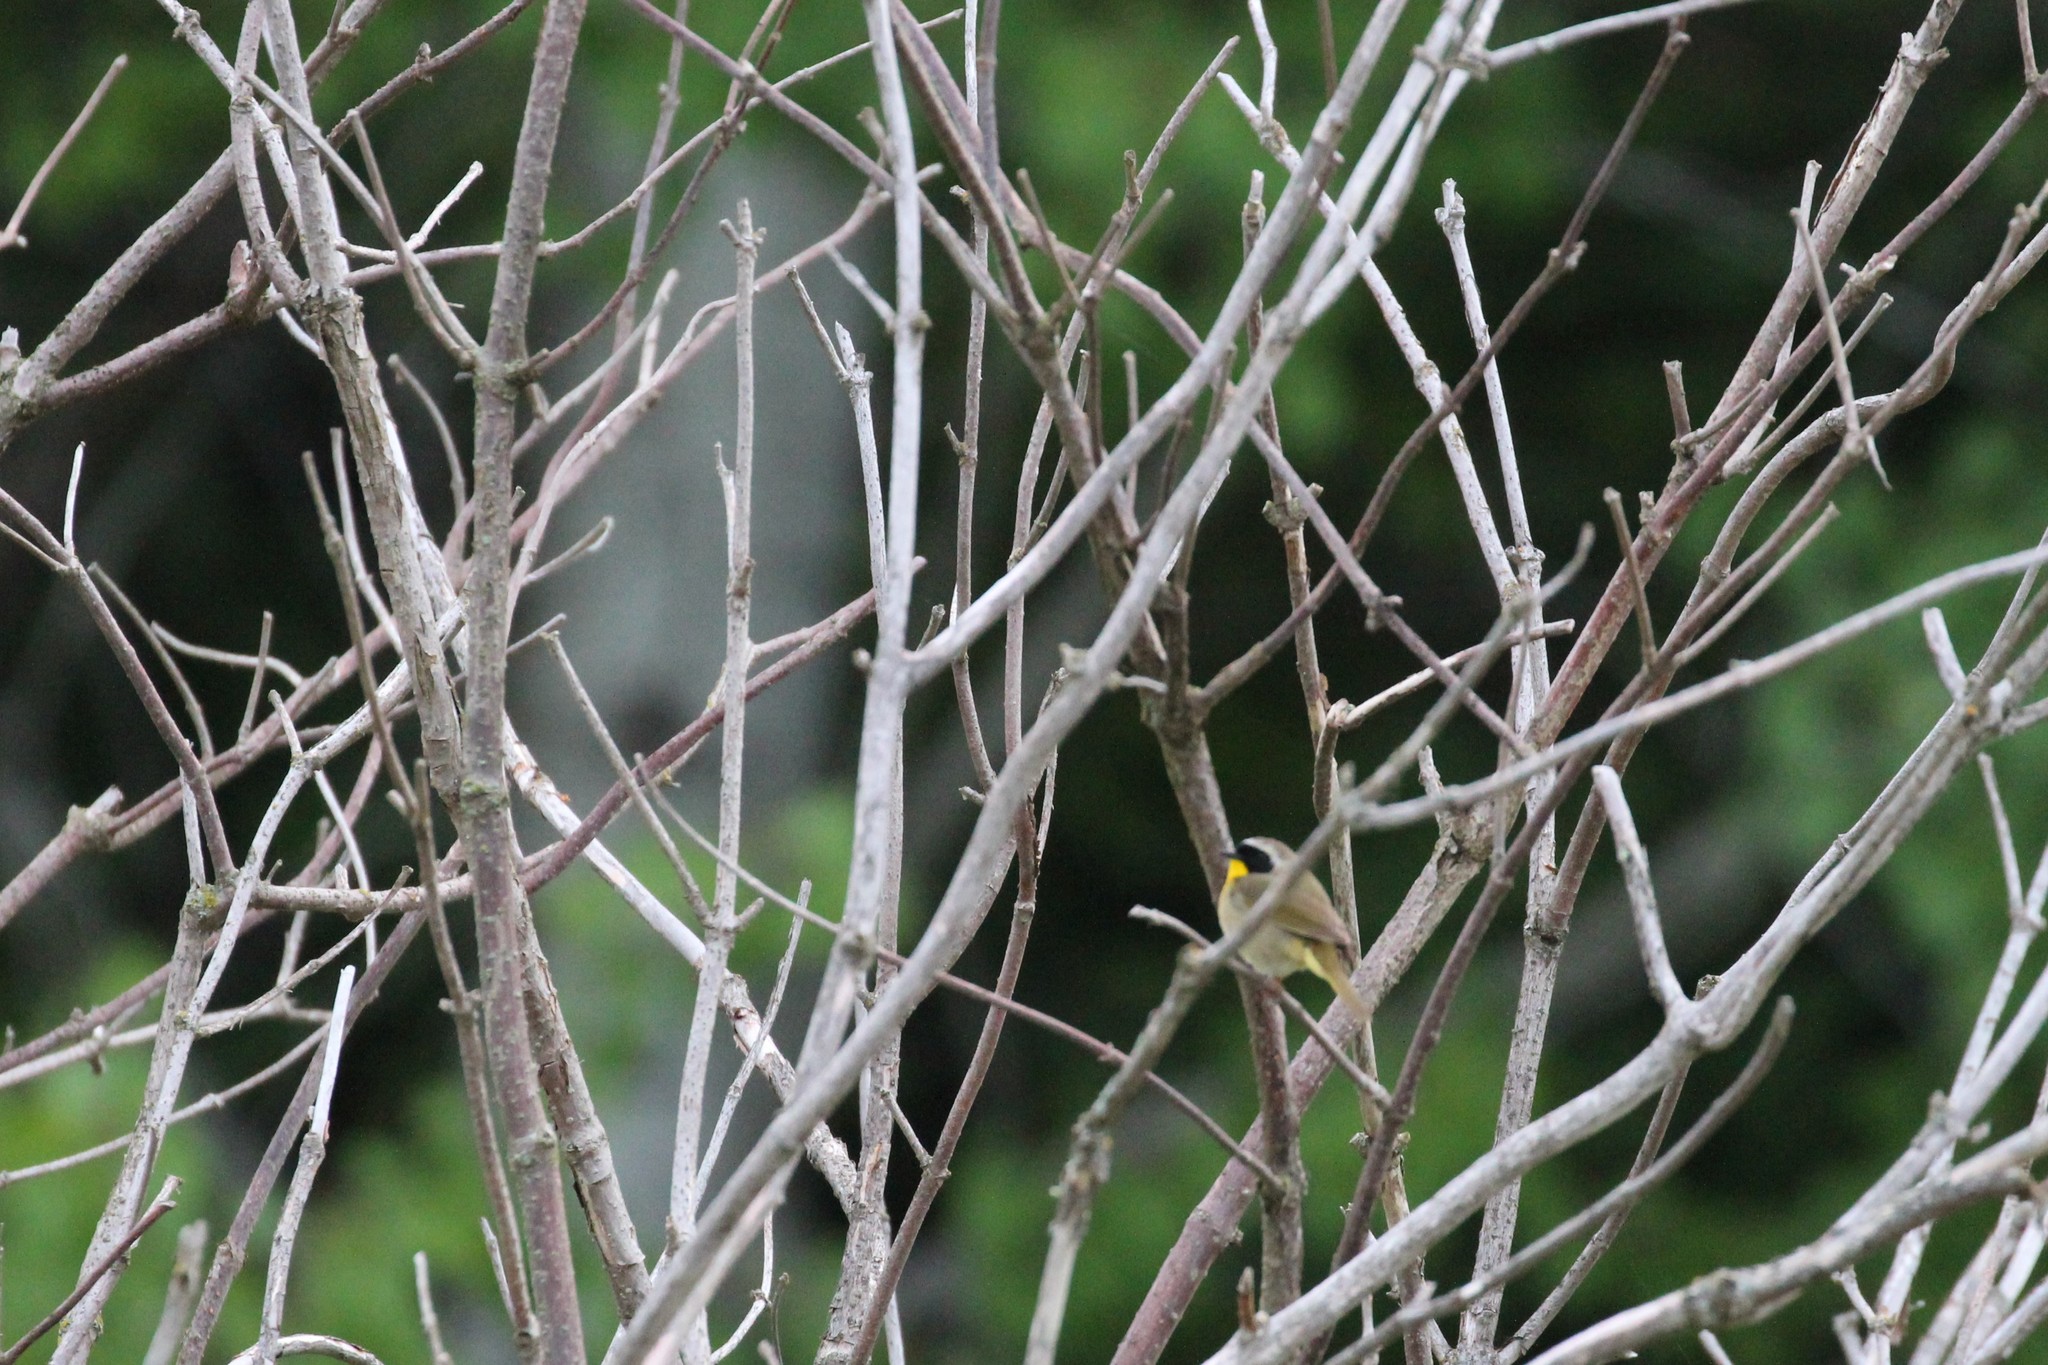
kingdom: Animalia
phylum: Chordata
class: Aves
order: Passeriformes
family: Parulidae
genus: Geothlypis
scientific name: Geothlypis trichas
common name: Common yellowthroat
